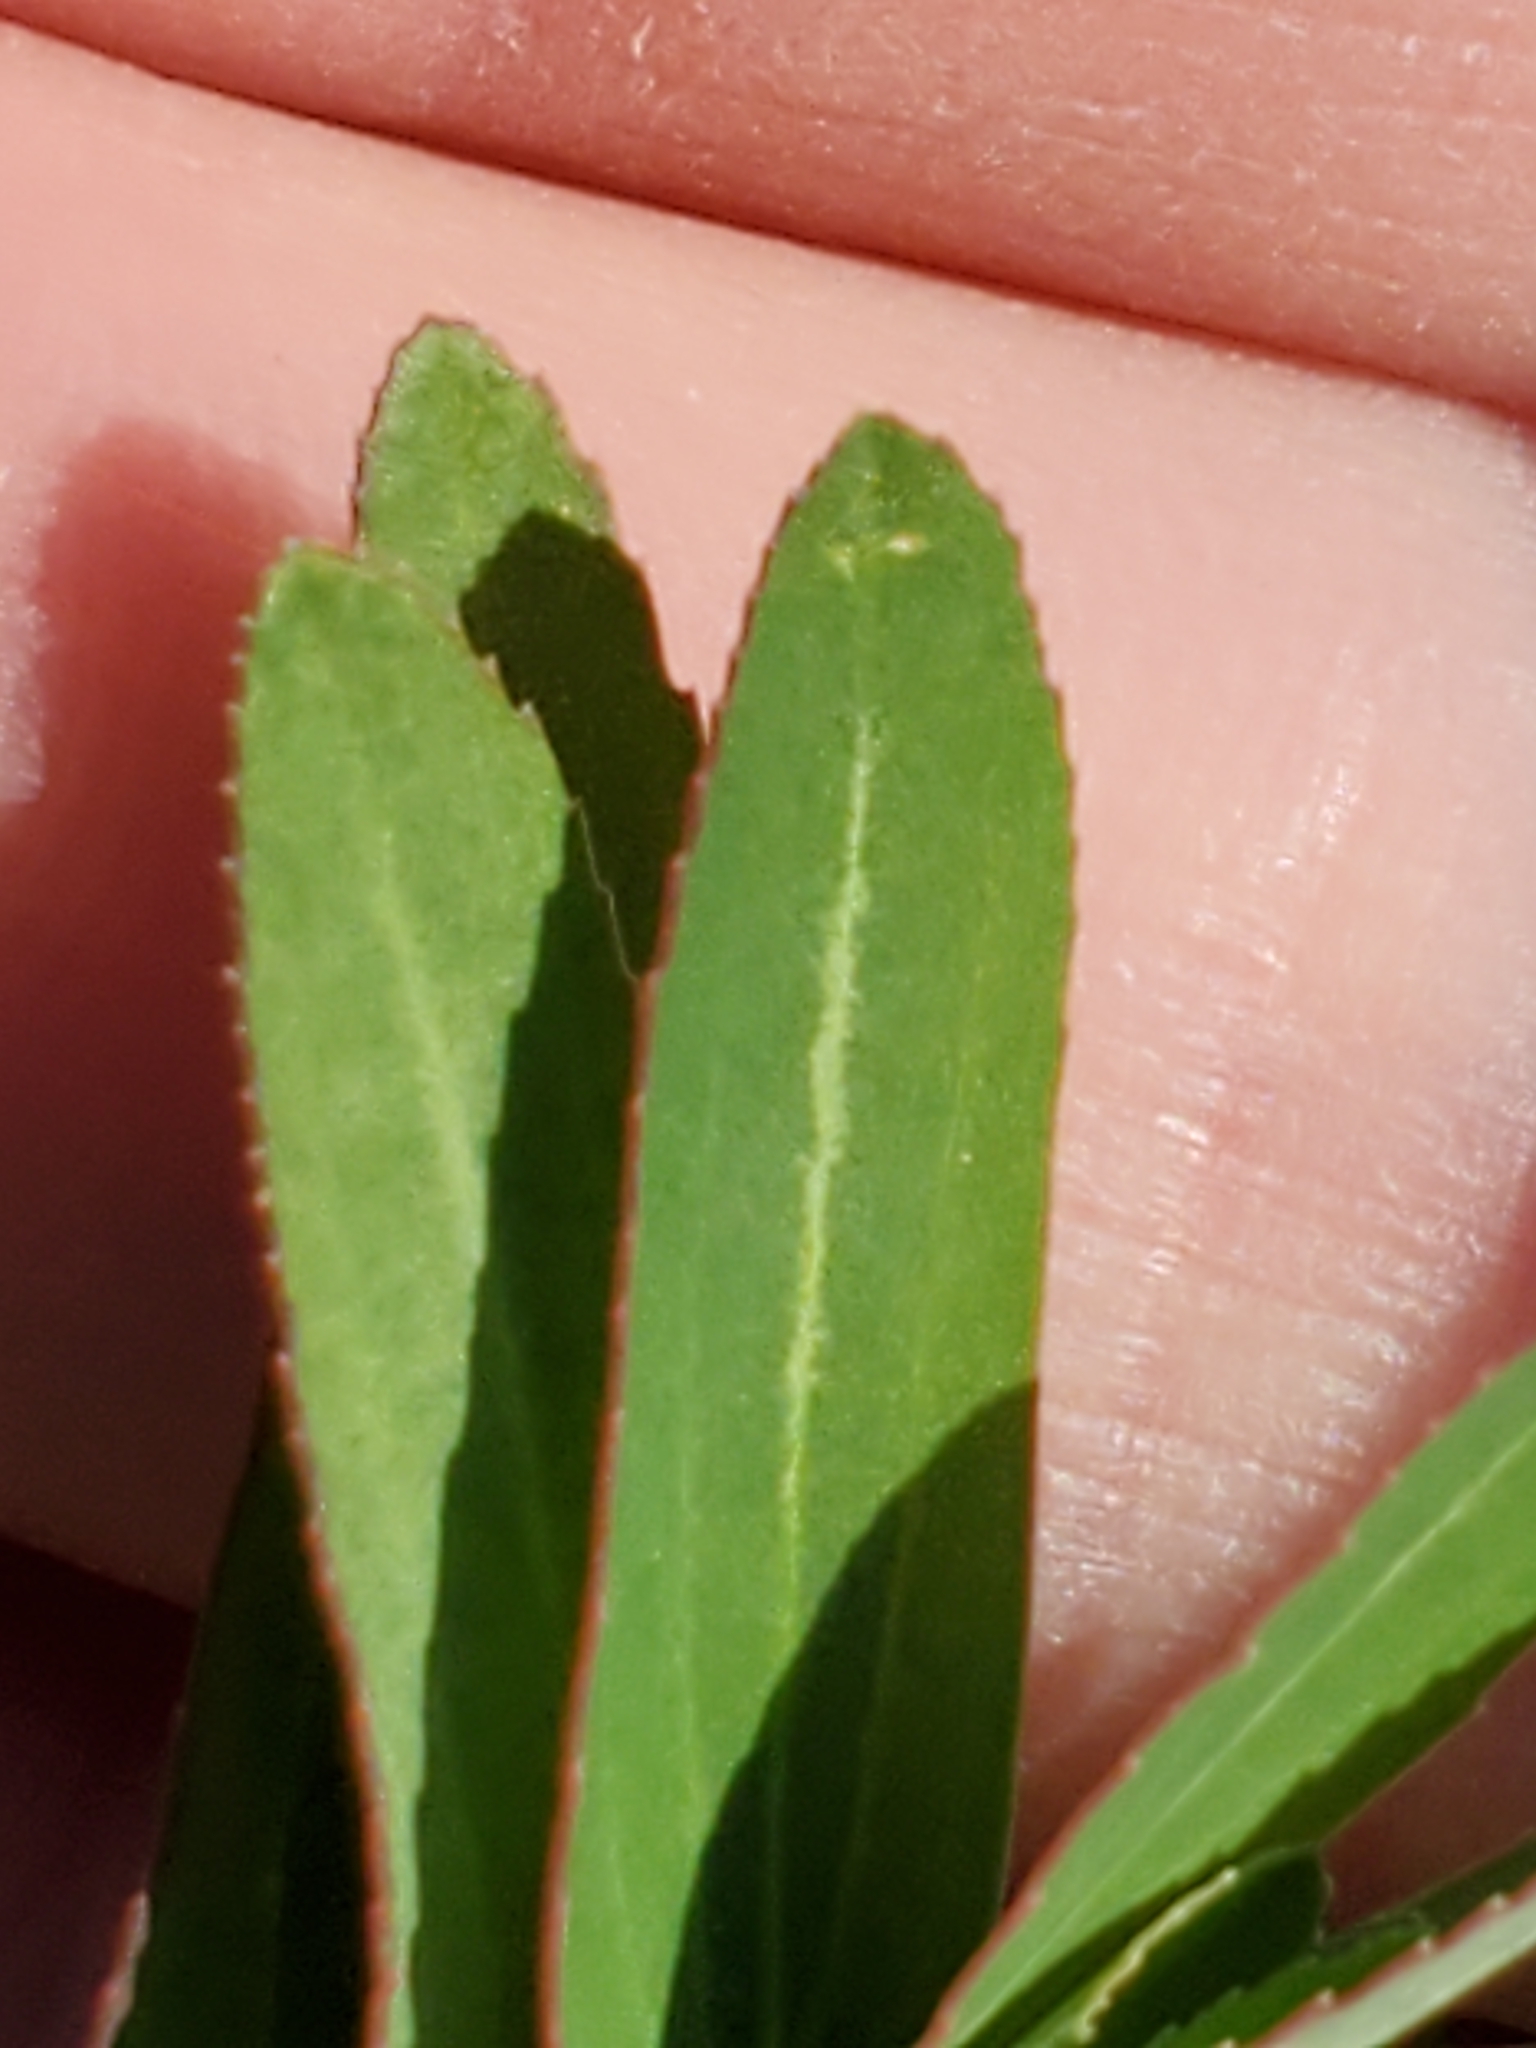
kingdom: Plantae
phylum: Tracheophyta
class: Magnoliopsida
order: Malpighiales
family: Euphorbiaceae
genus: Euphorbia
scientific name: Euphorbia hyssopifolia
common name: Hyssopleaf sandmat
